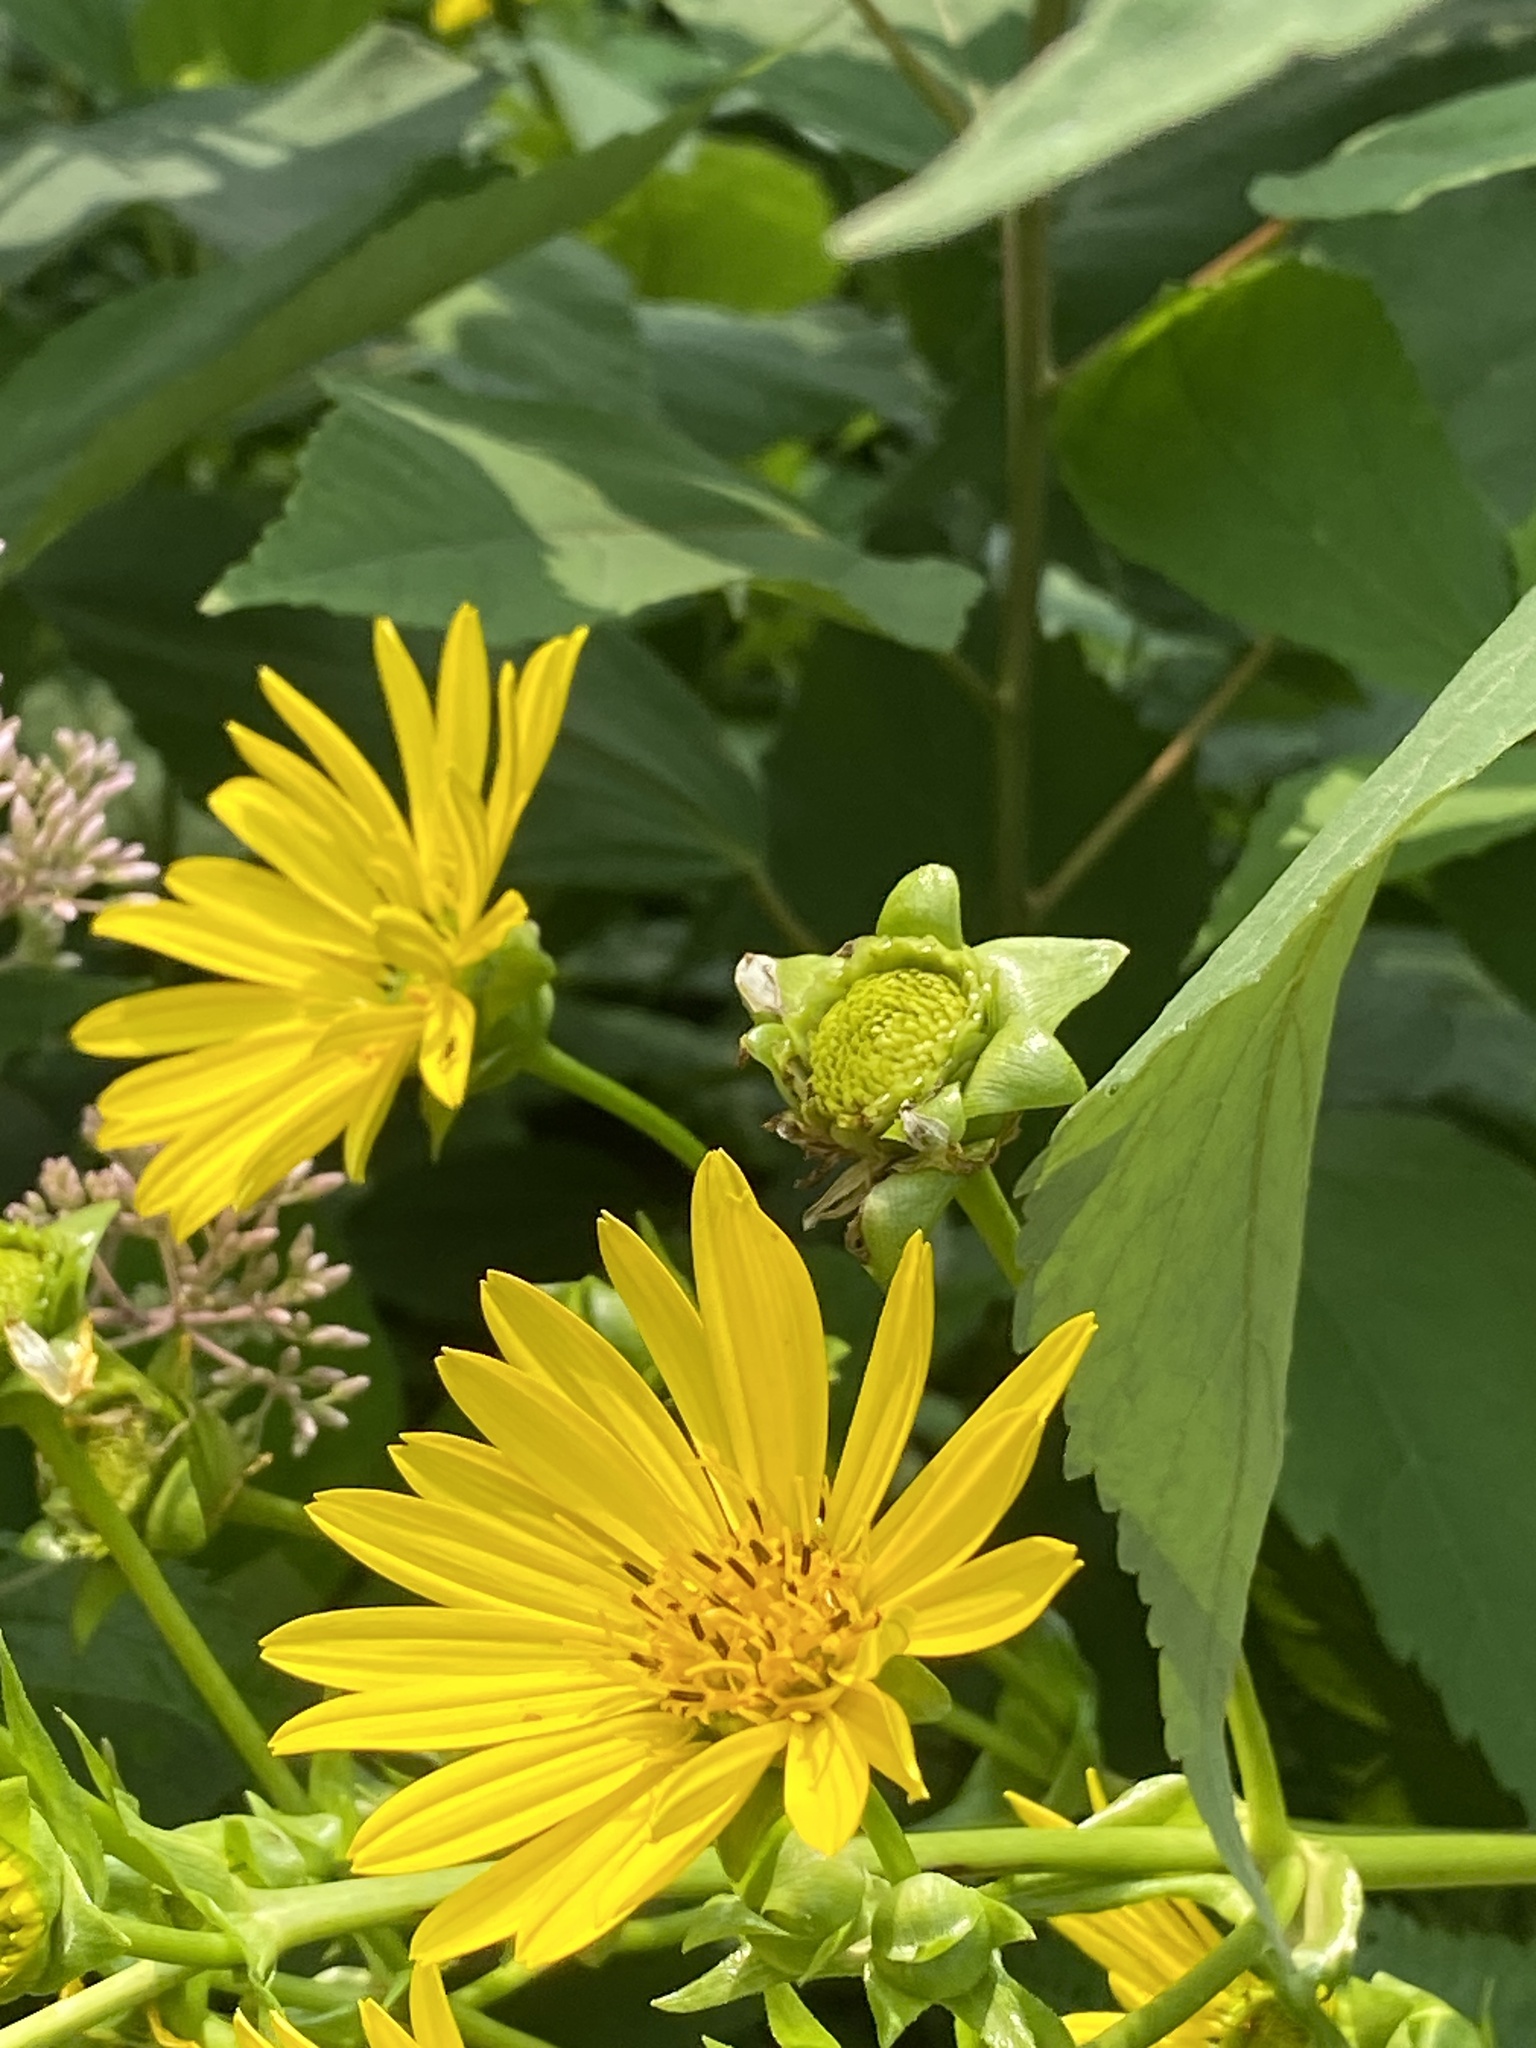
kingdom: Plantae
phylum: Tracheophyta
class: Magnoliopsida
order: Asterales
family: Asteraceae
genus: Silphium
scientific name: Silphium perfoliatum
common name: Cup-plant
